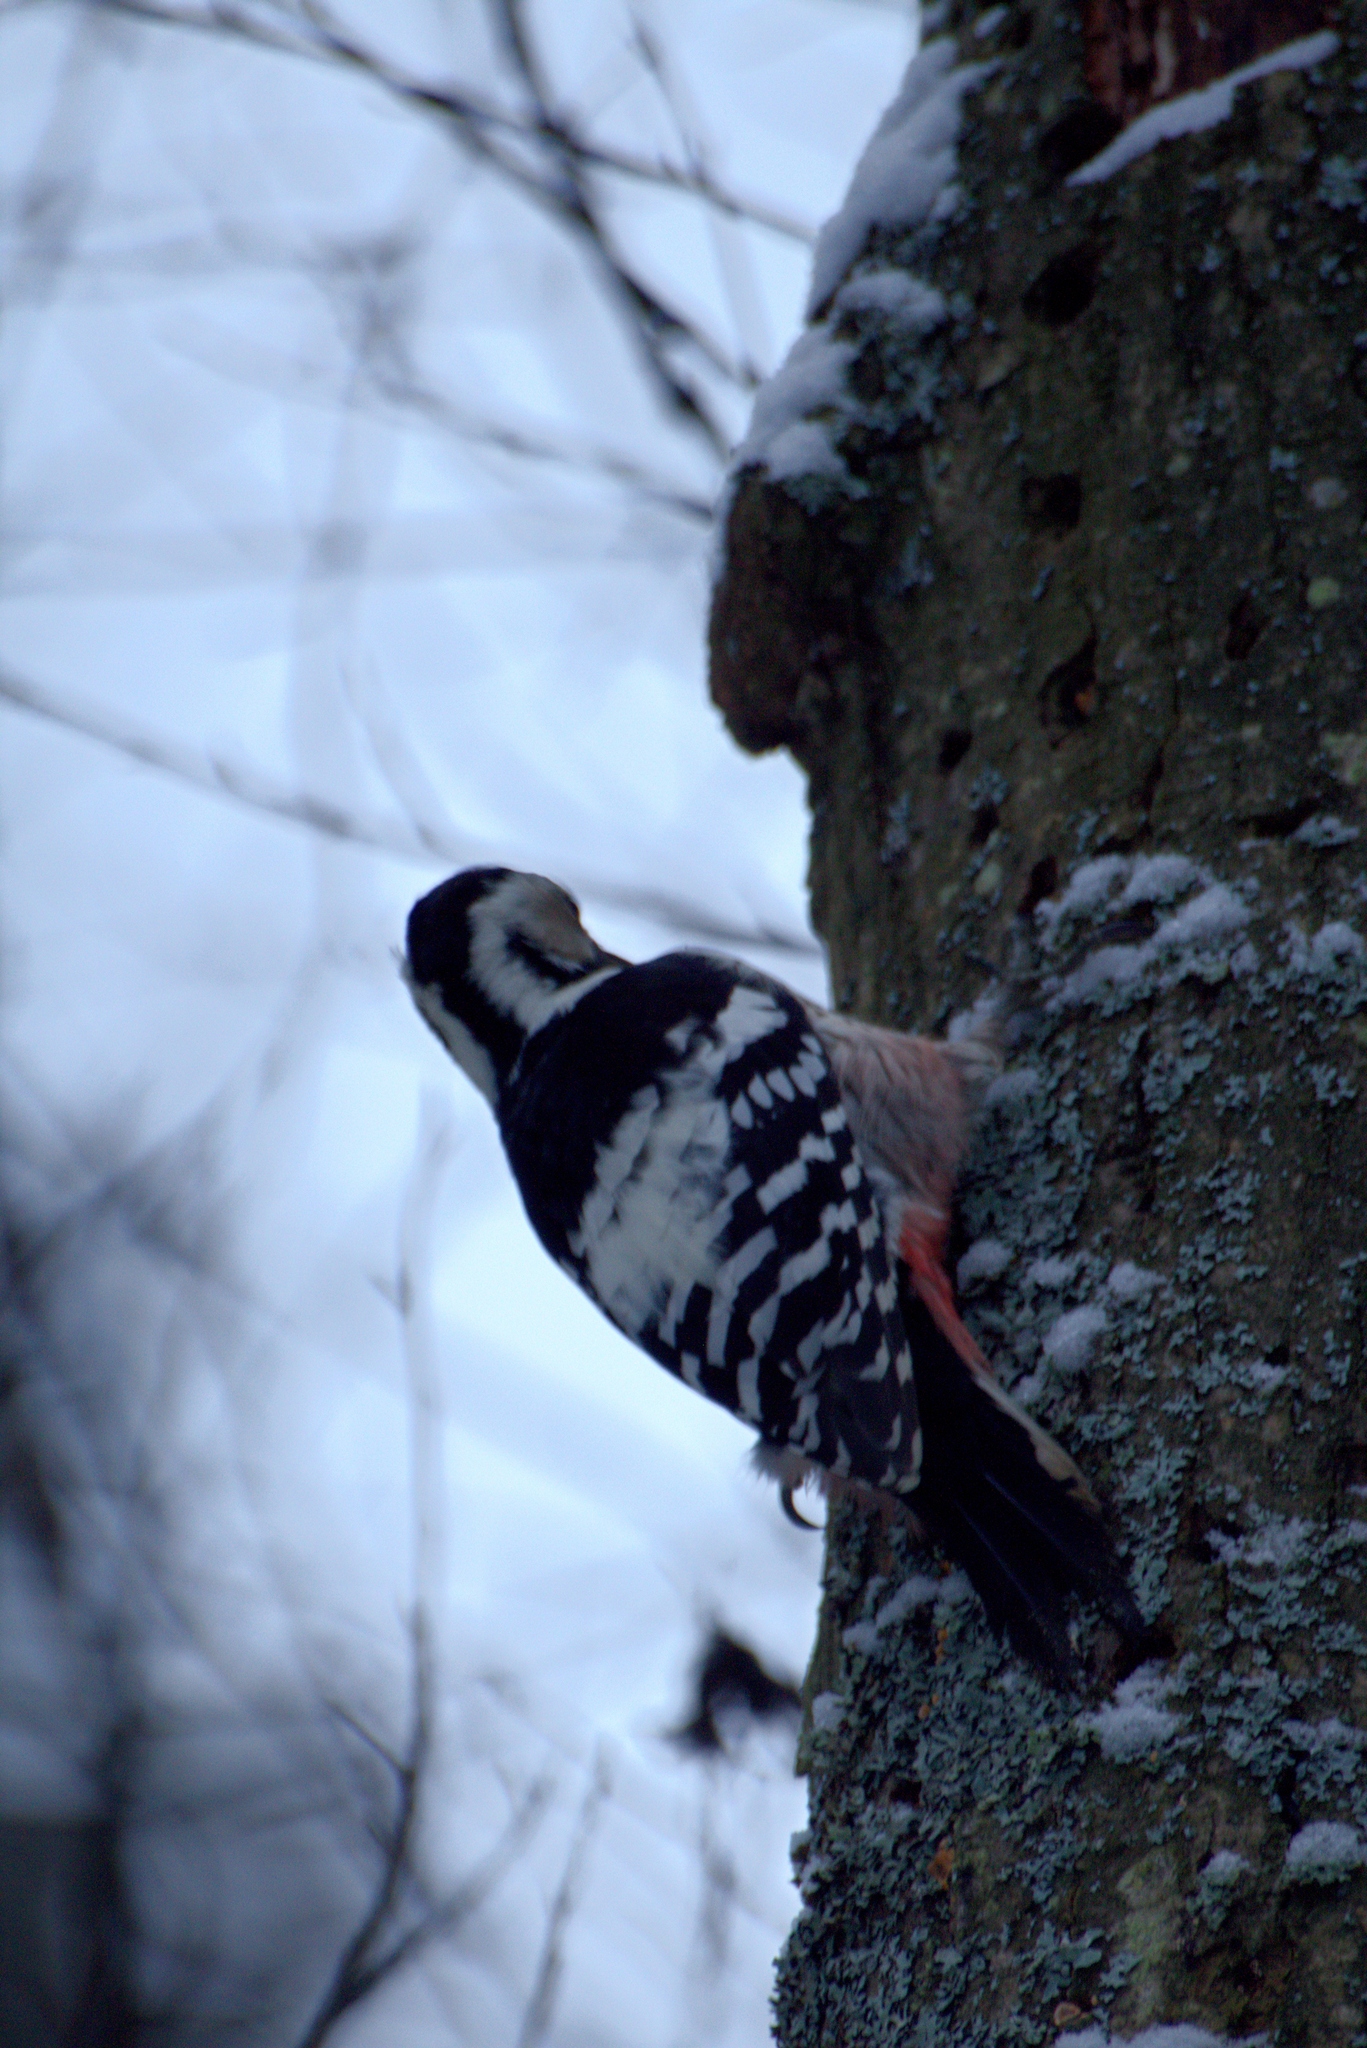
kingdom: Animalia
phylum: Chordata
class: Aves
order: Piciformes
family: Picidae
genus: Dendrocopos
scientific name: Dendrocopos leucotos
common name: White-backed woodpecker
